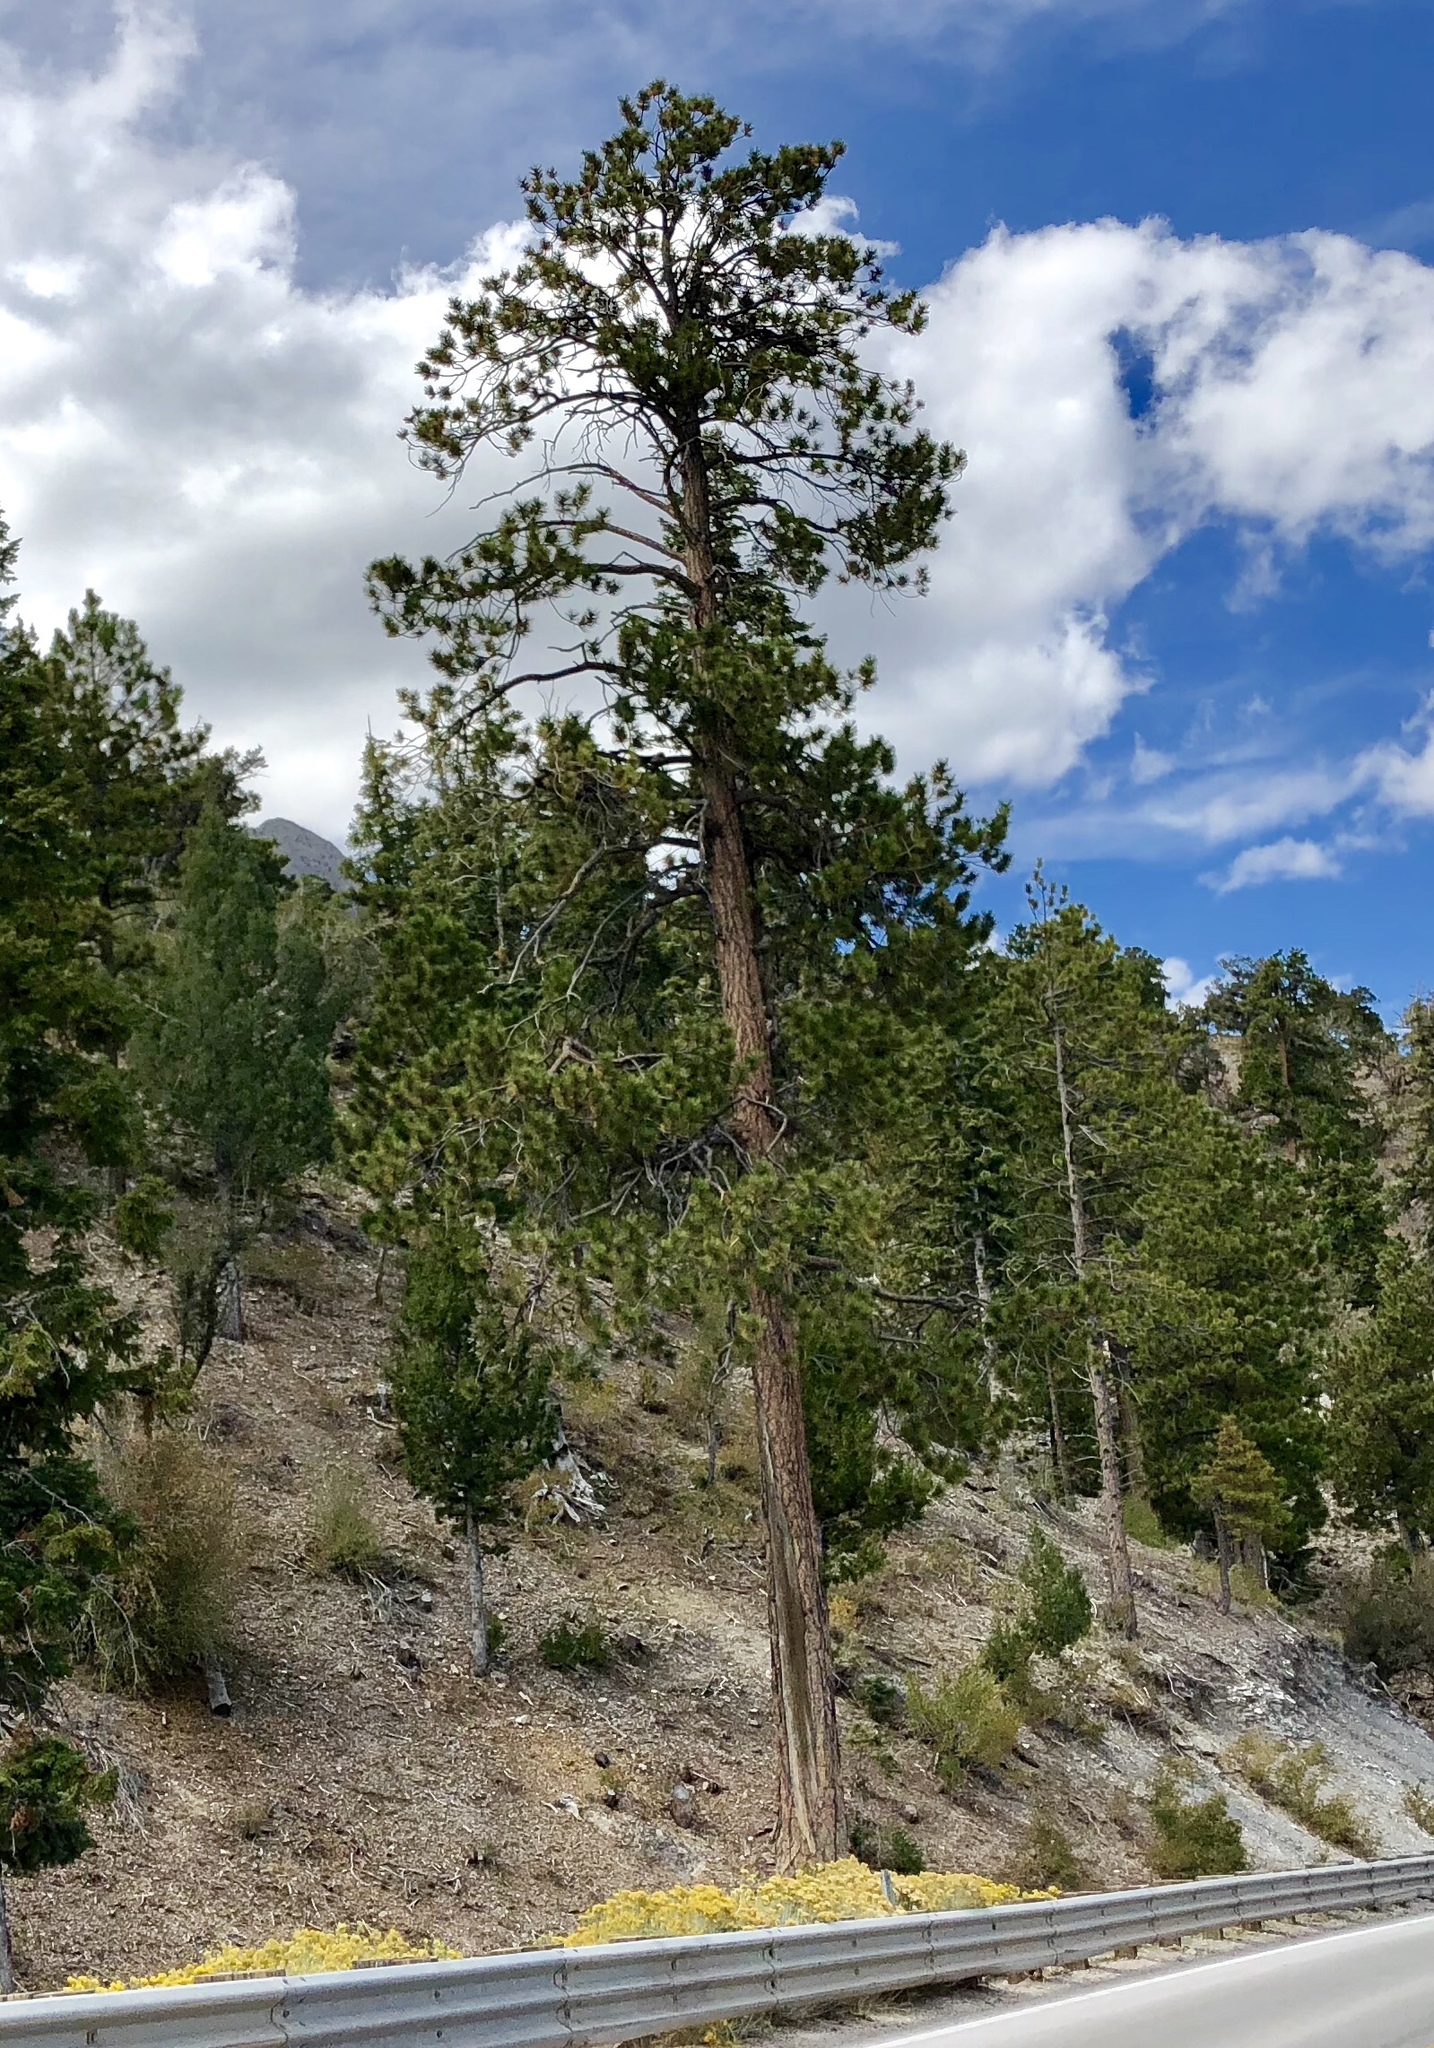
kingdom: Plantae
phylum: Tracheophyta
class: Pinopsida
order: Pinales
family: Pinaceae
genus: Pinus
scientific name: Pinus ponderosa
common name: Western yellow-pine
